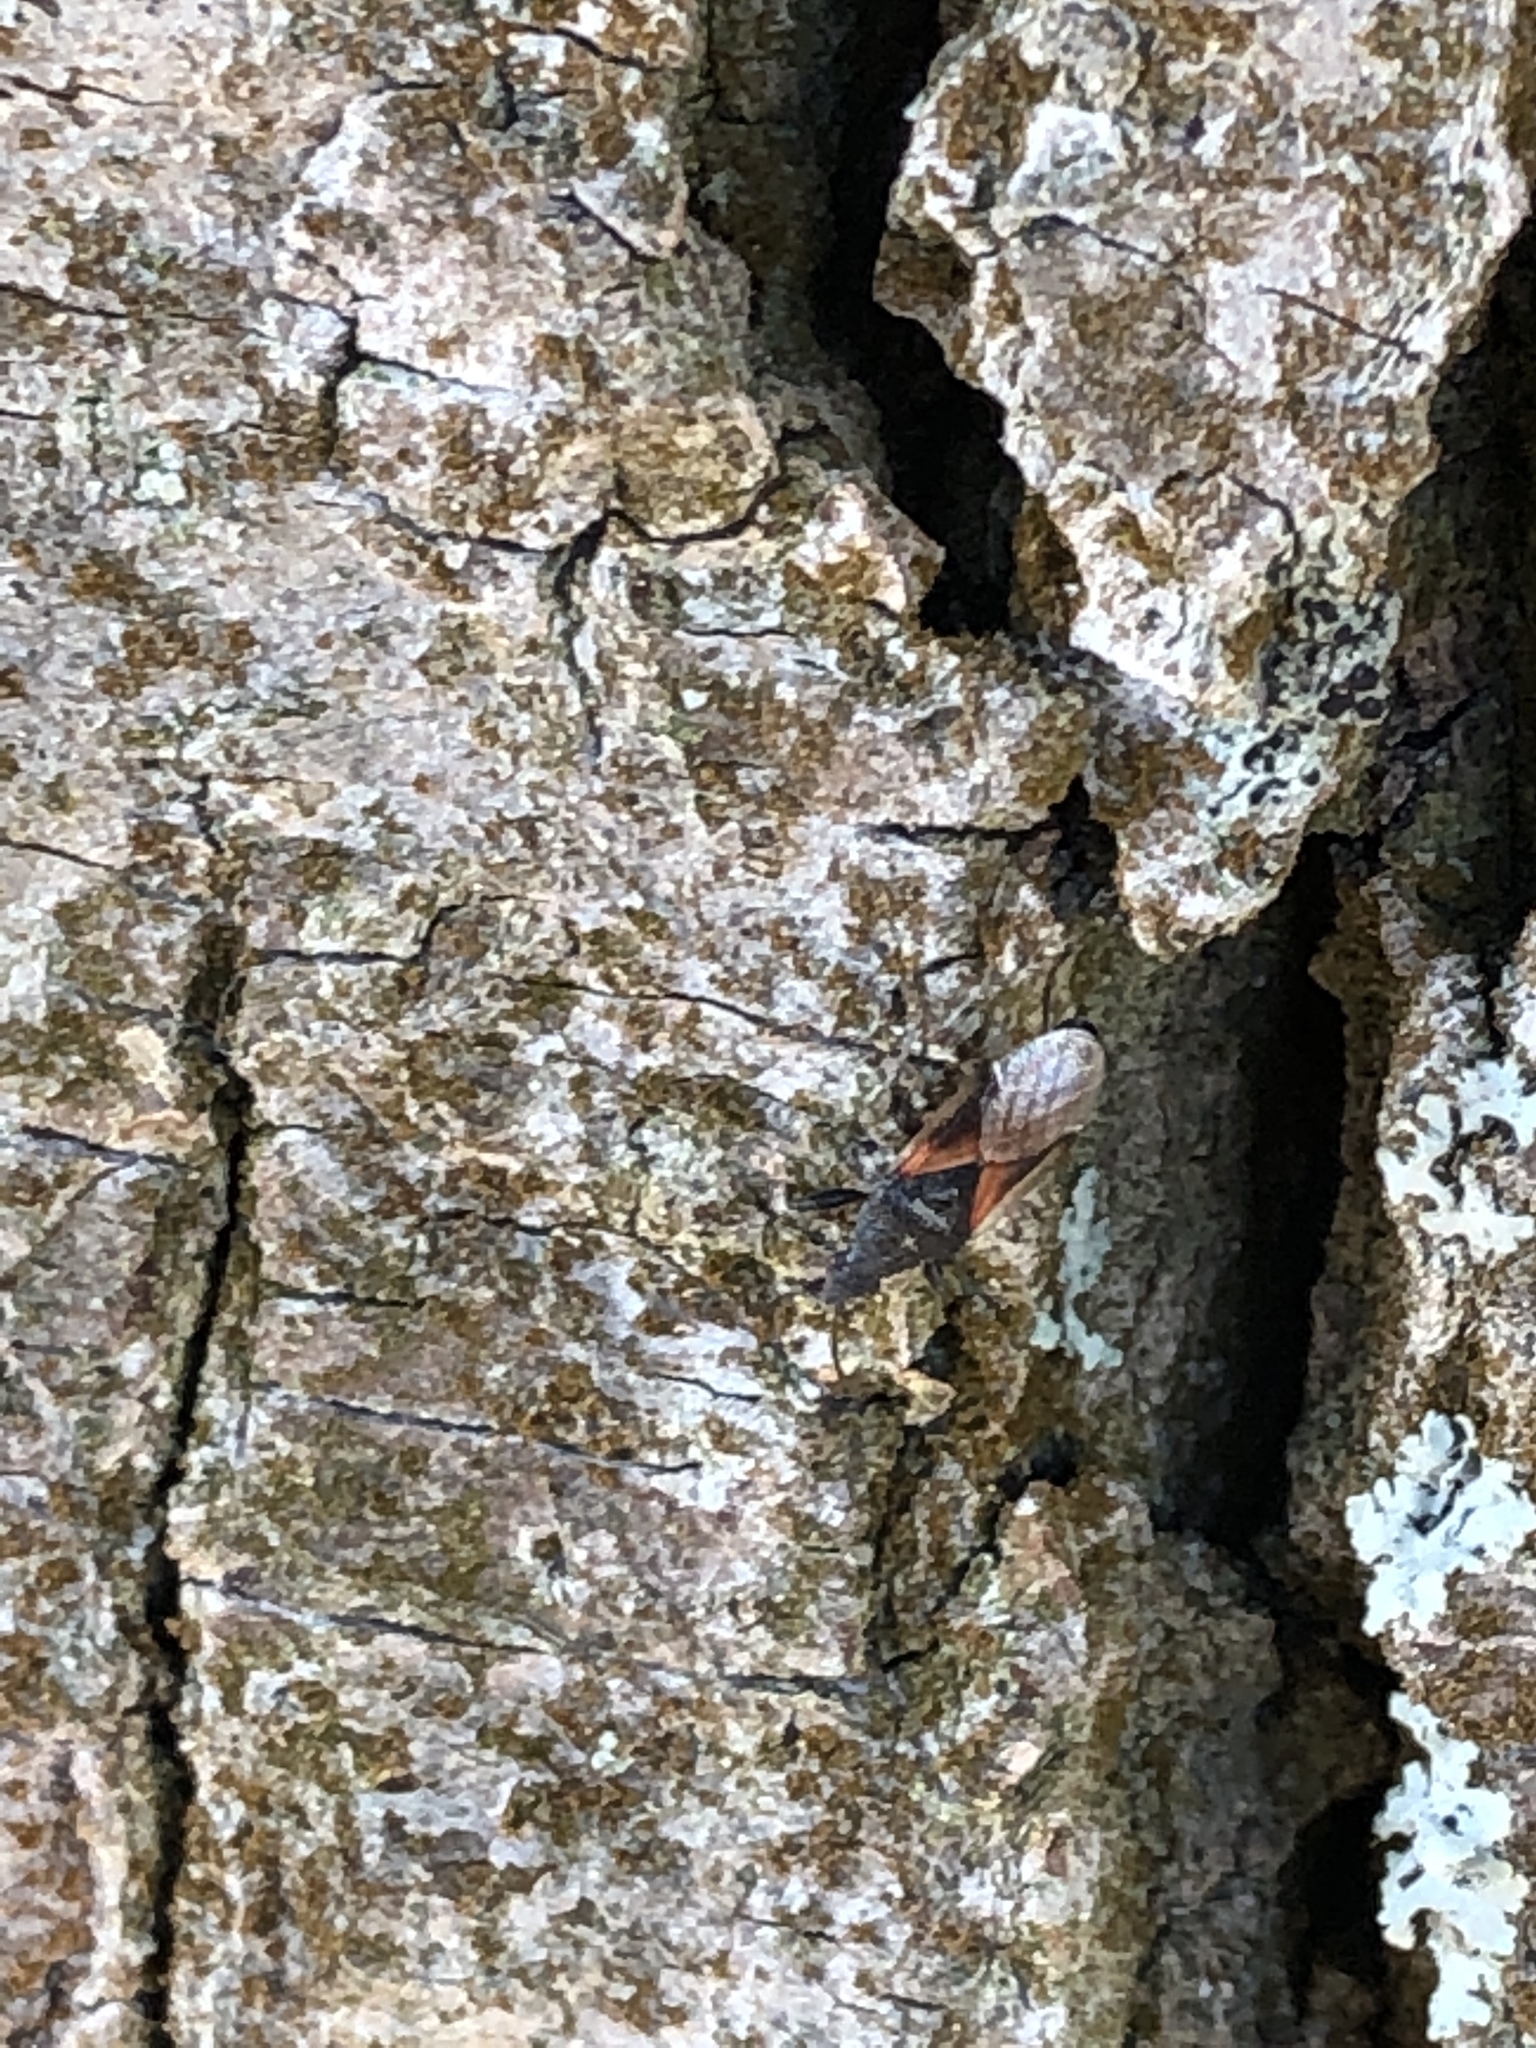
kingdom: Animalia
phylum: Arthropoda
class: Insecta
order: Hemiptera
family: Oxycarenidae
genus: Oxycarenus
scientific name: Oxycarenus lavaterae
